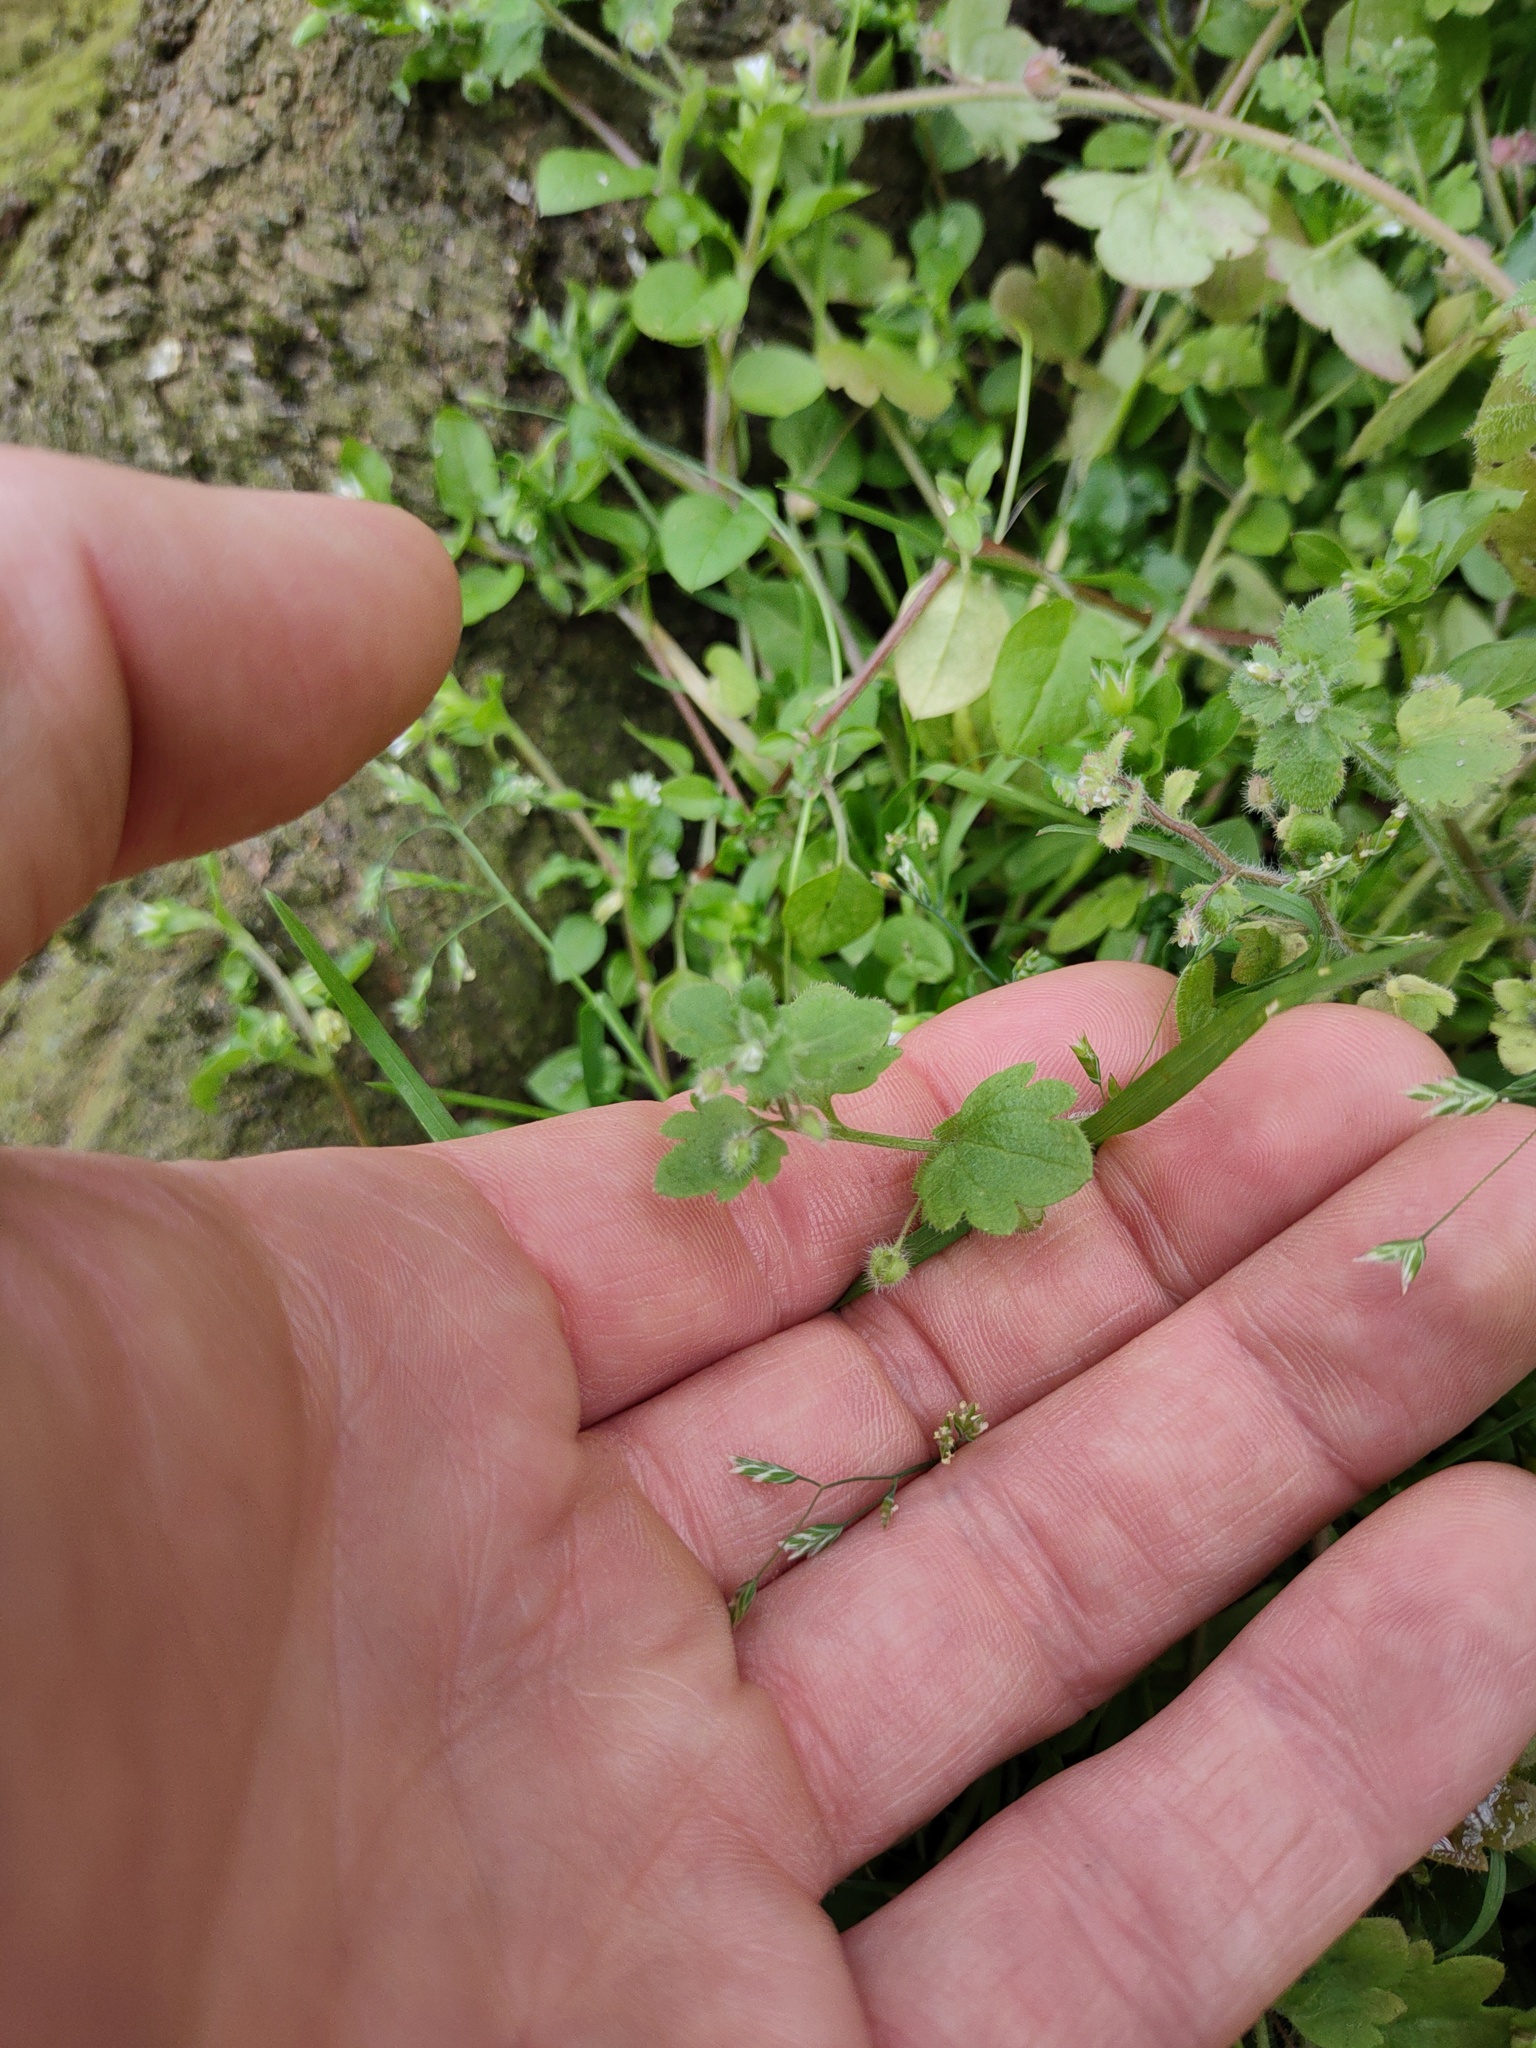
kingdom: Plantae
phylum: Tracheophyta
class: Magnoliopsida
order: Lamiales
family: Plantaginaceae
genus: Veronica
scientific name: Veronica hederifolia
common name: Ivy-leaved speedwell
